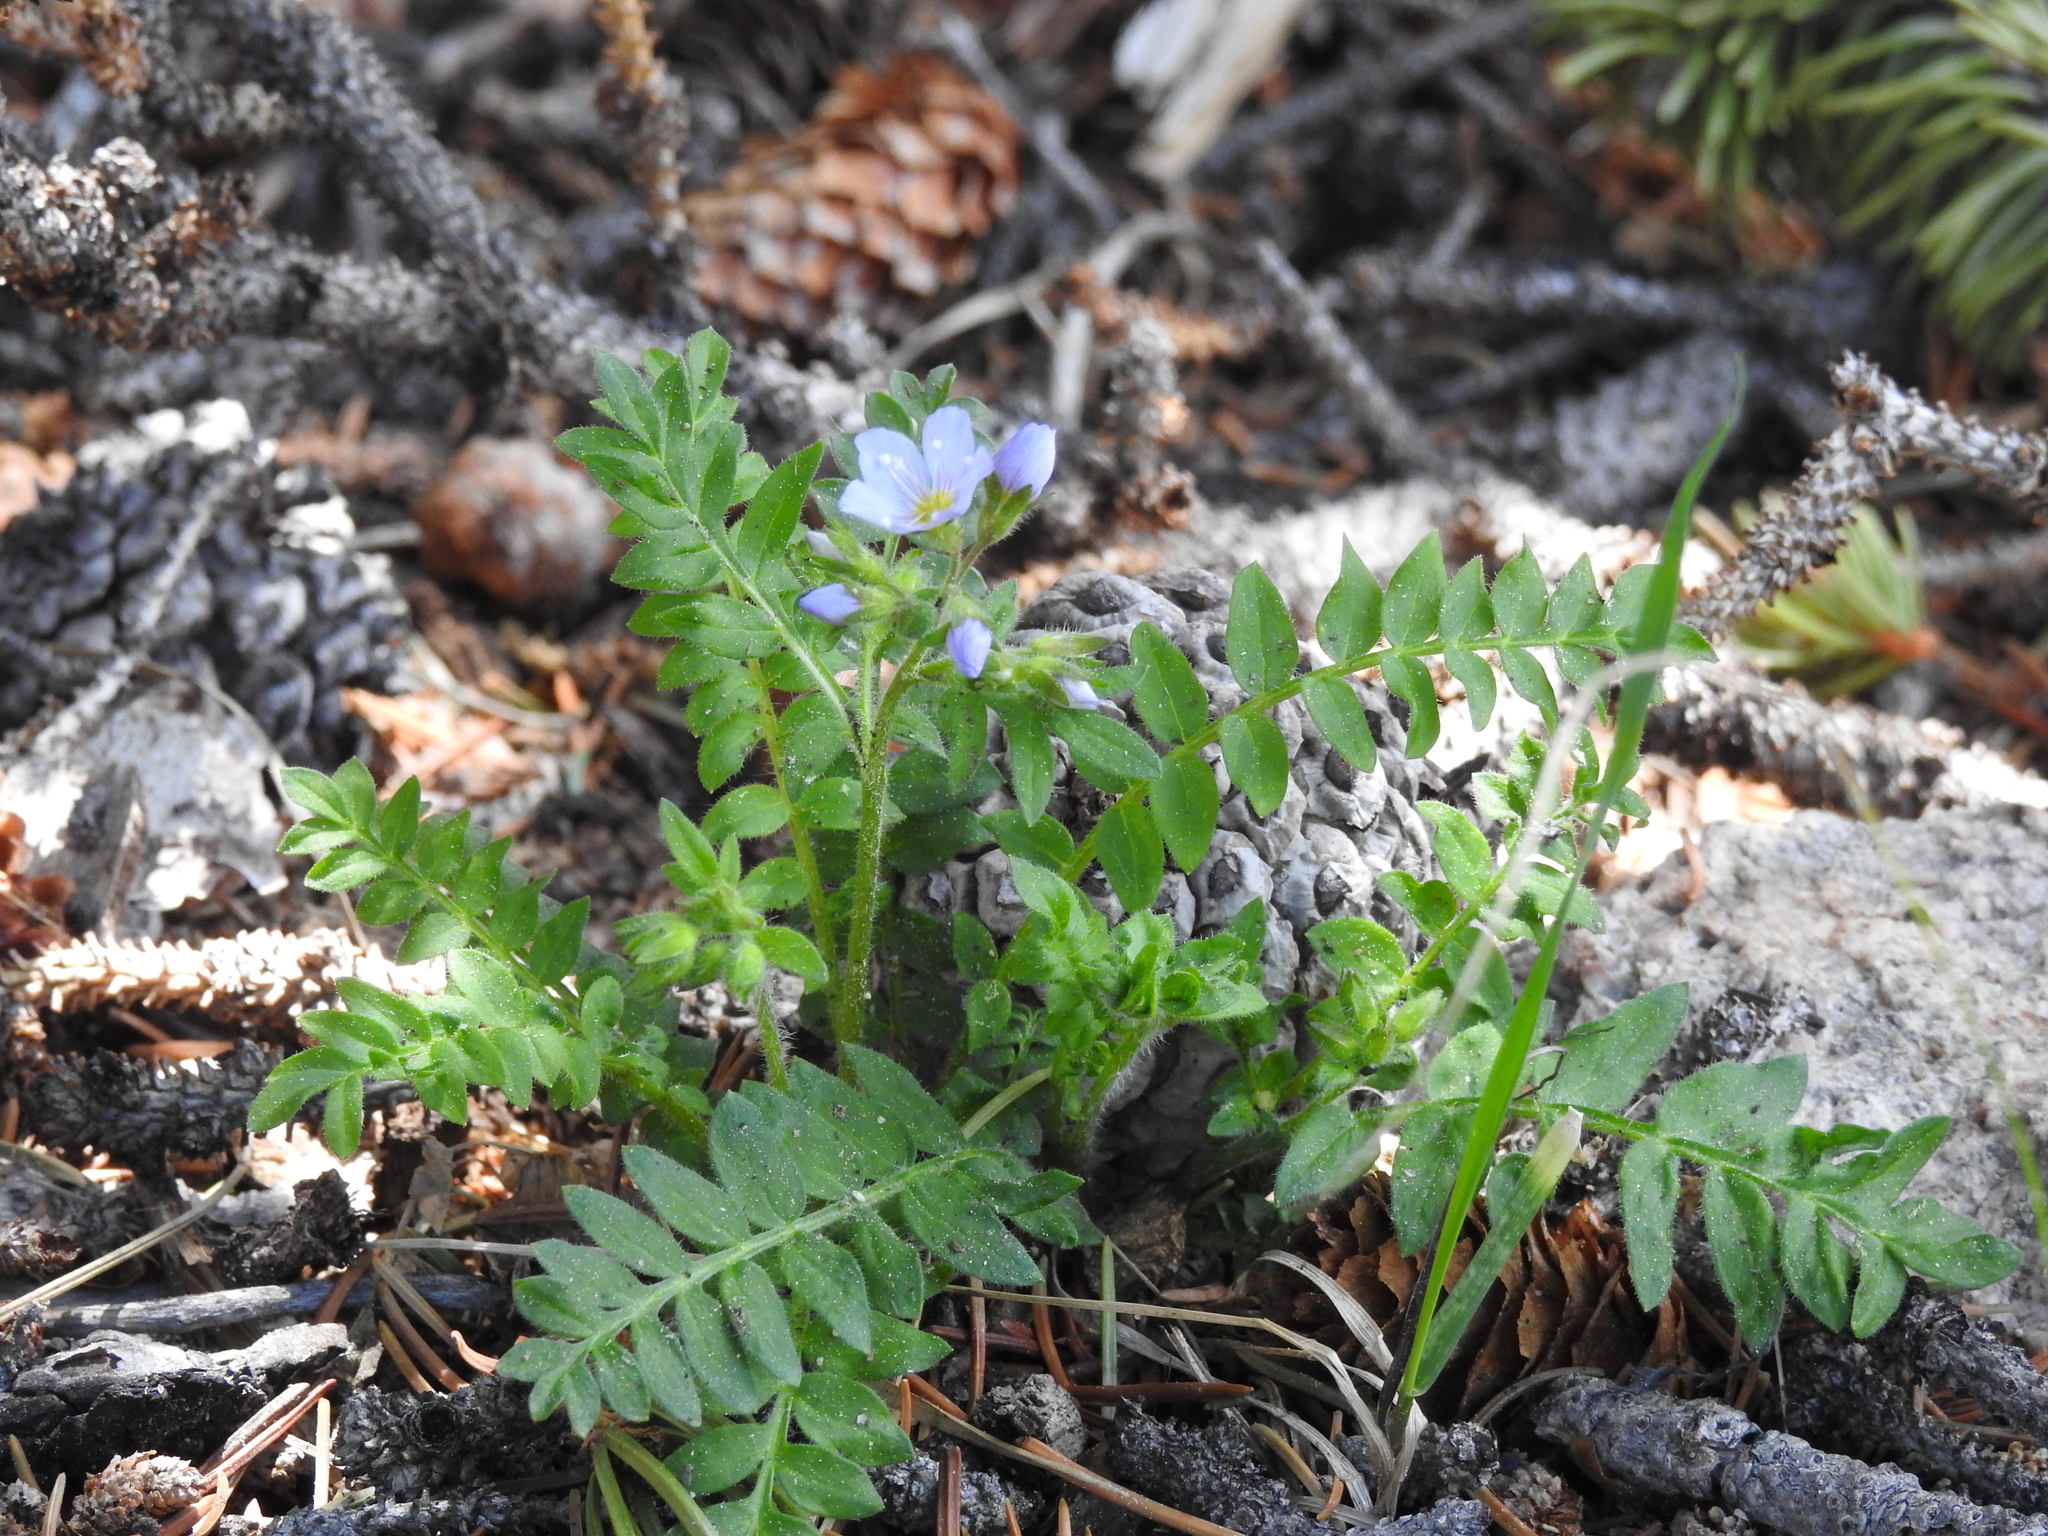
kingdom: Plantae
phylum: Tracheophyta
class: Magnoliopsida
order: Ericales
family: Polemoniaceae
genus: Polemonium
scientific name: Polemonium pulcherrimum
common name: Short jacob's-ladder
